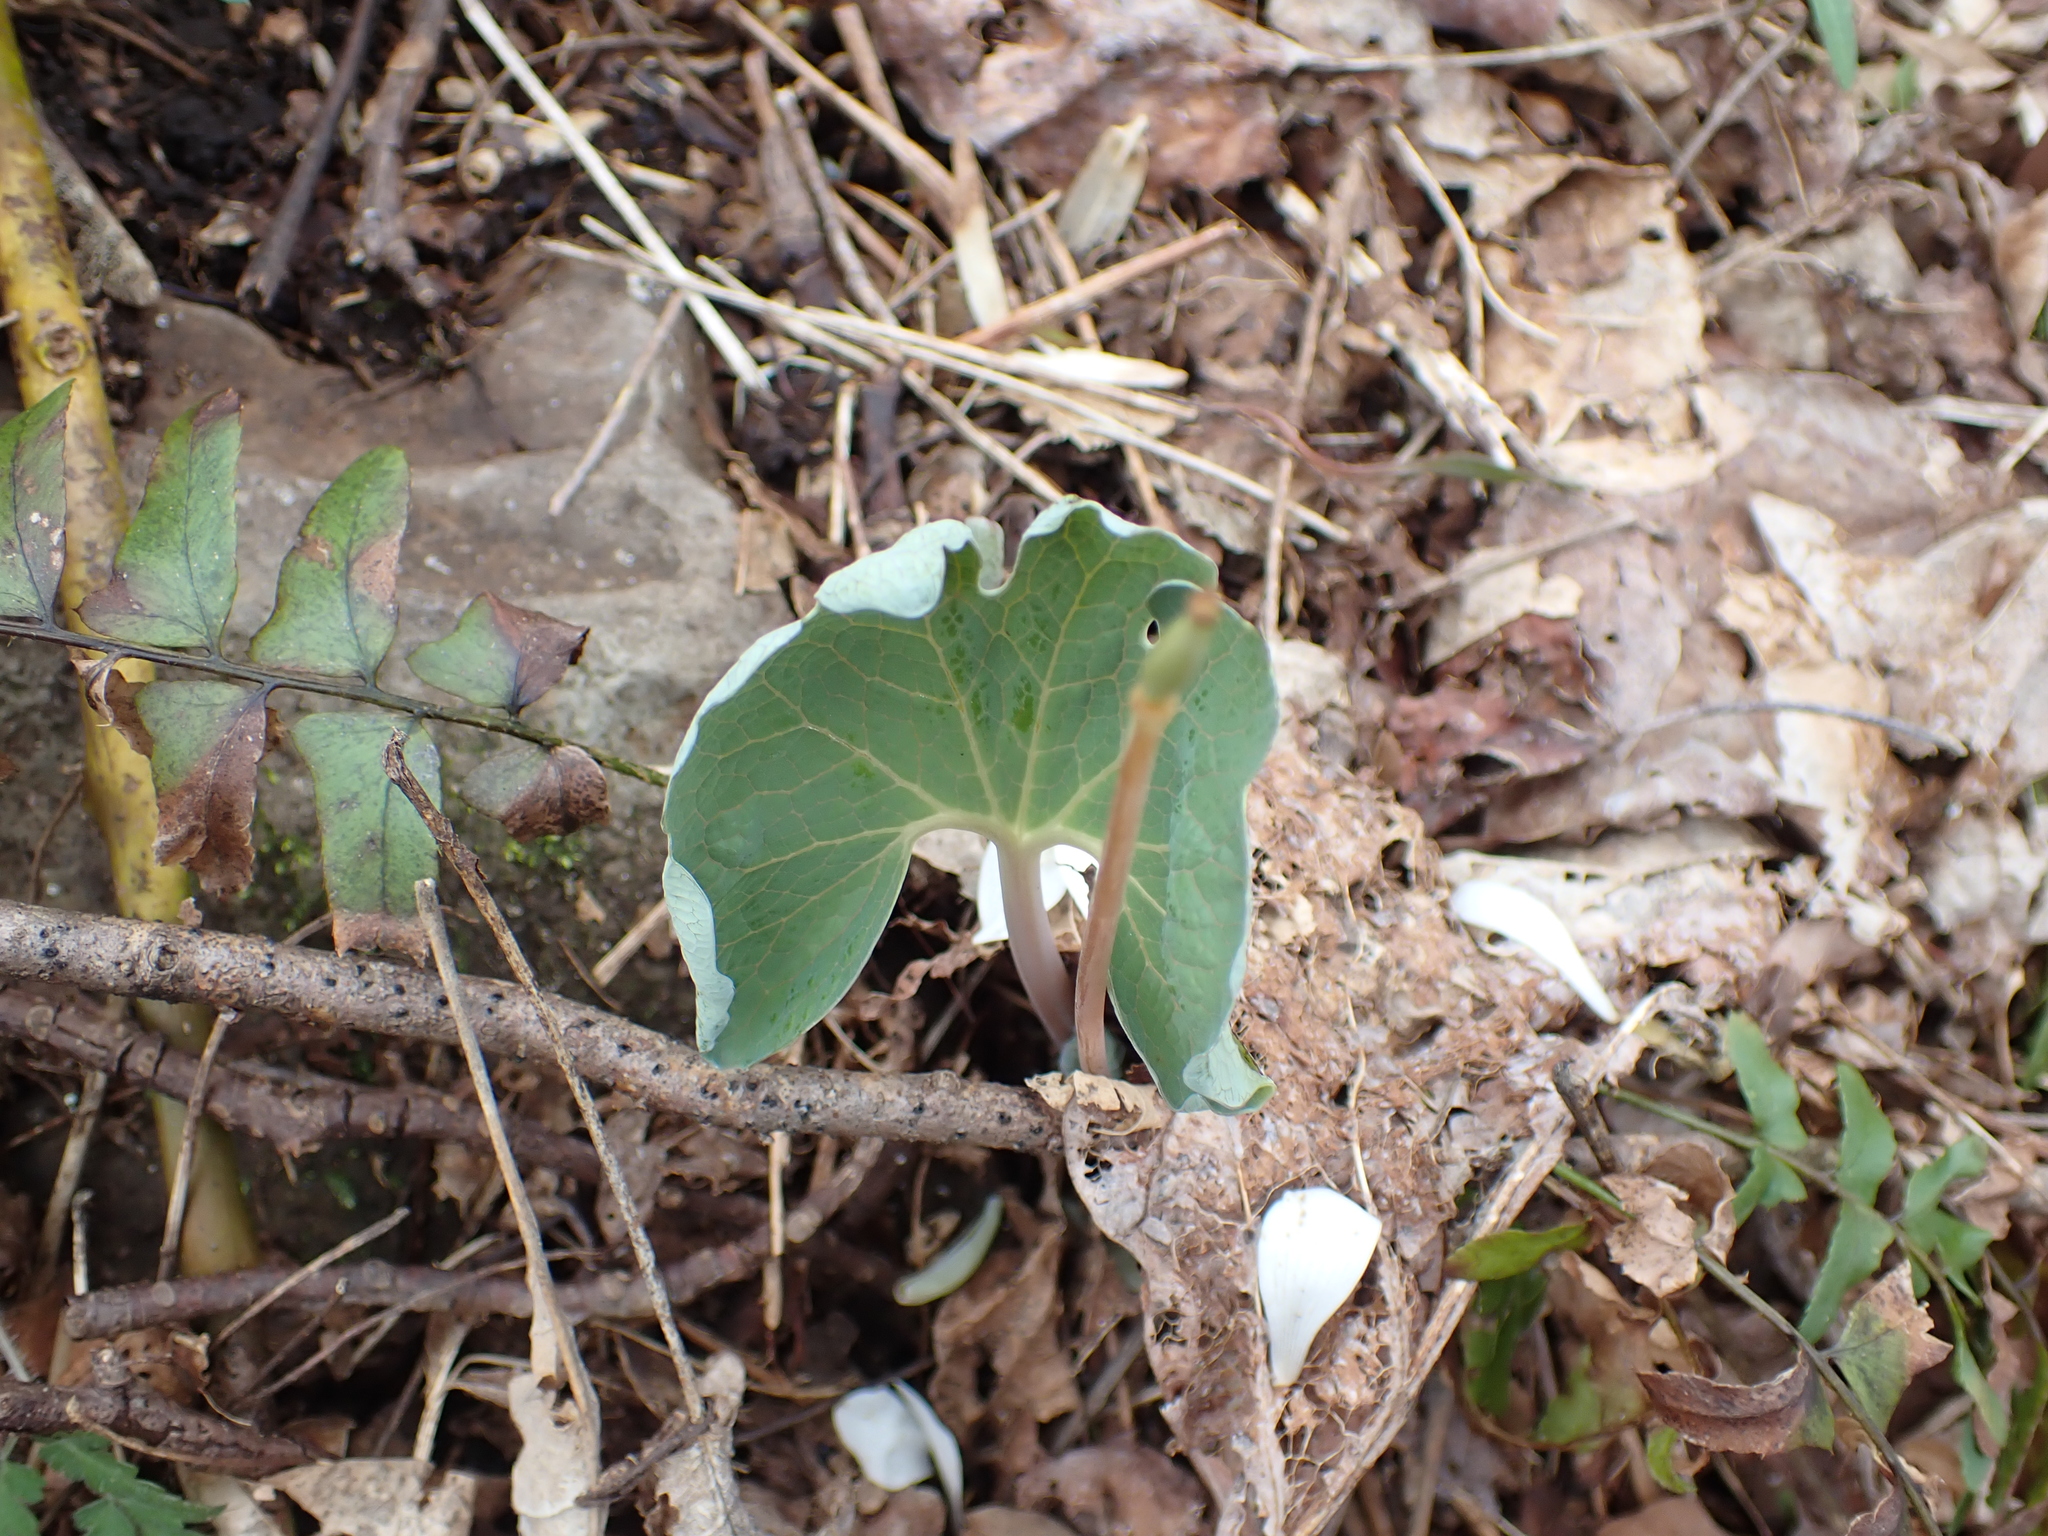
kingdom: Plantae
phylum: Tracheophyta
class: Magnoliopsida
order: Ranunculales
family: Papaveraceae
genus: Sanguinaria
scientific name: Sanguinaria canadensis
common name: Bloodroot
